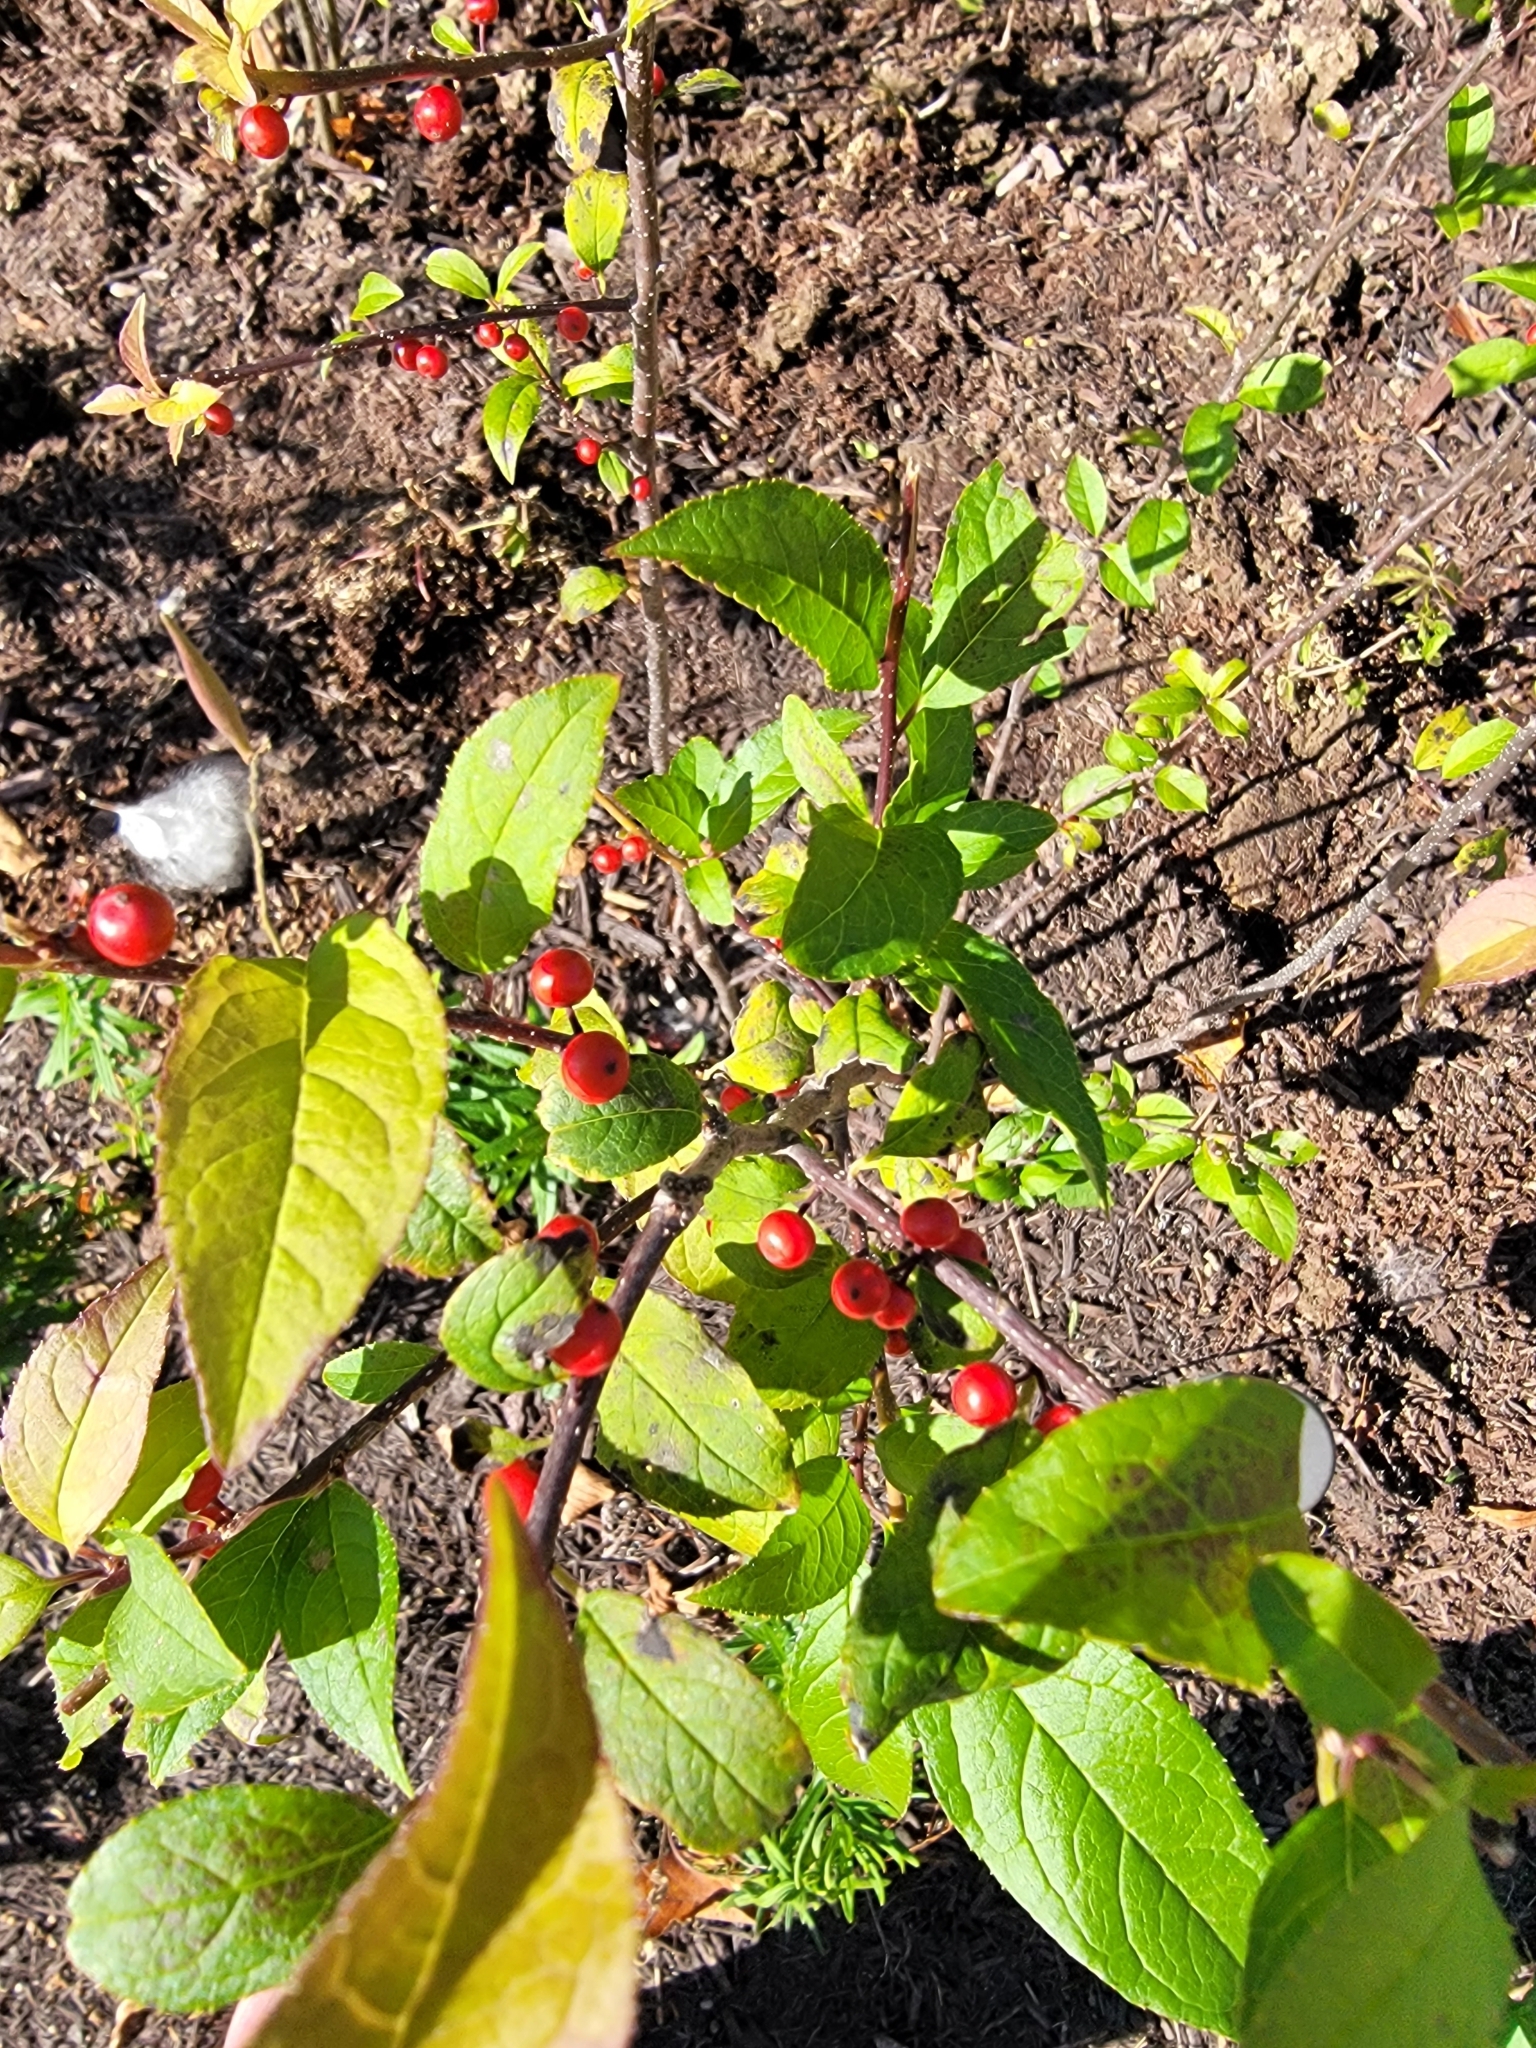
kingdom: Plantae
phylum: Tracheophyta
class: Magnoliopsida
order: Aquifoliales
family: Aquifoliaceae
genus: Ilex
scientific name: Ilex verticillata
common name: Virginia winterberry
